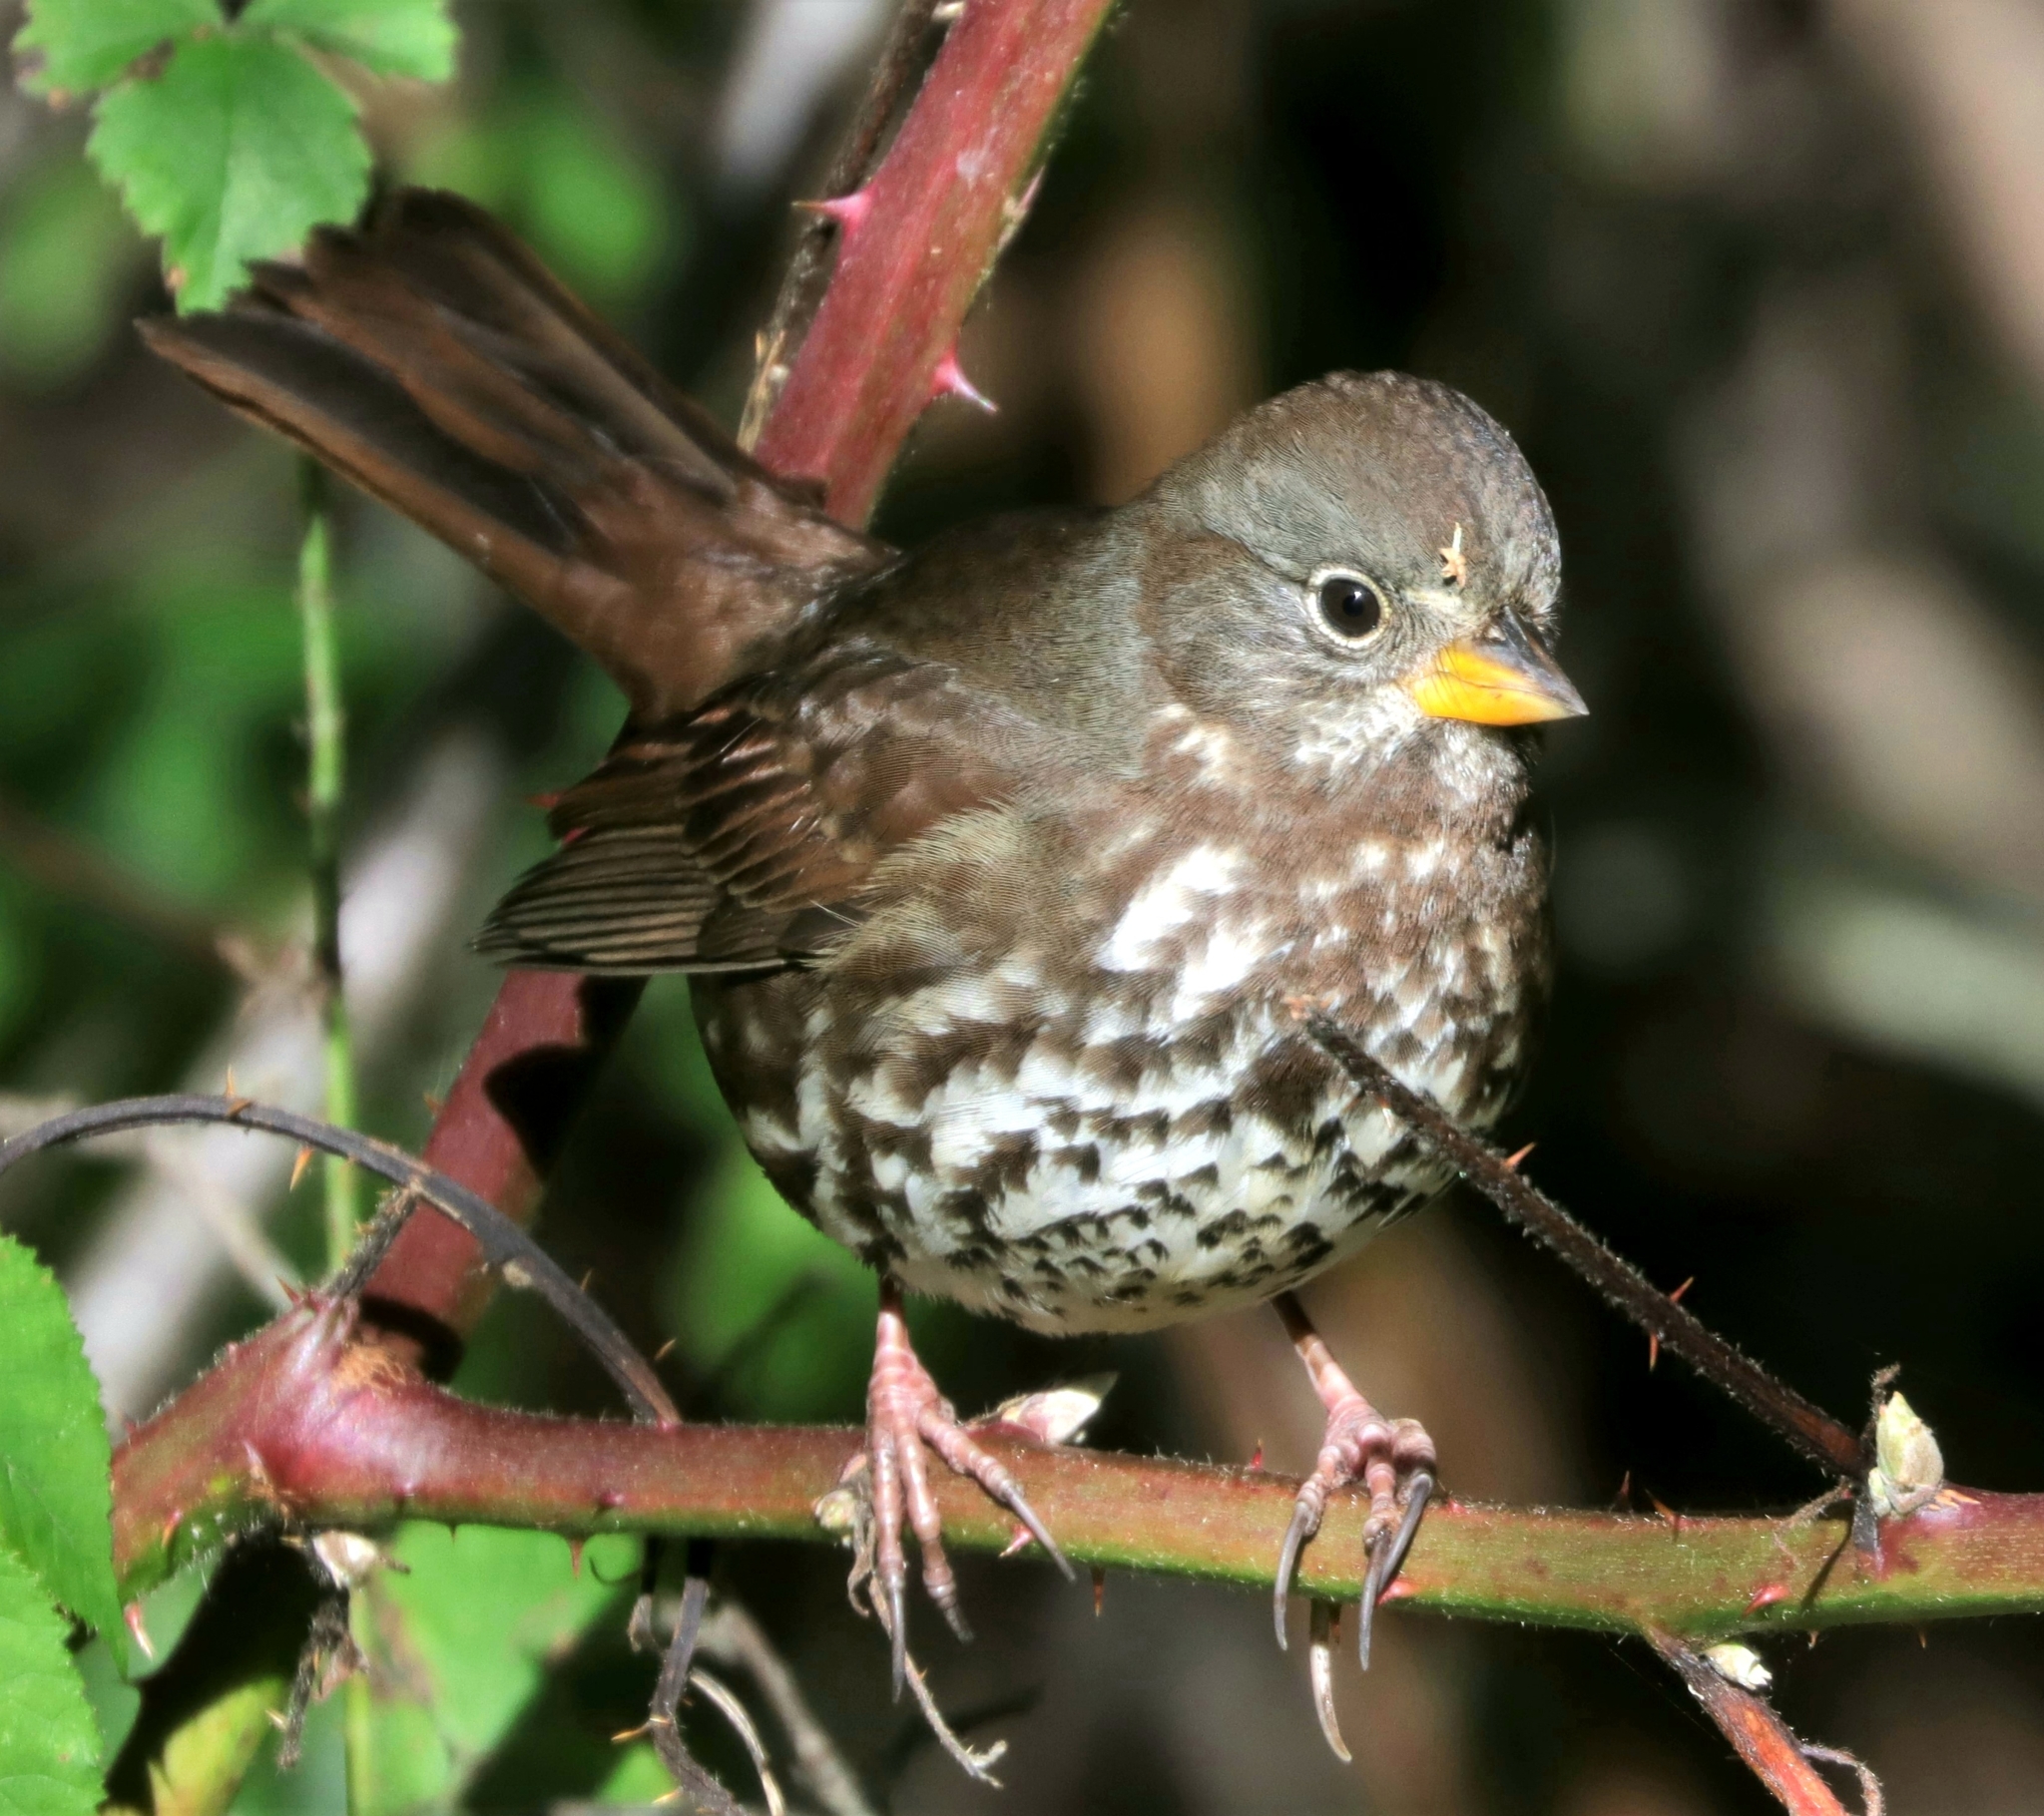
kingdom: Animalia
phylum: Chordata
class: Aves
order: Passeriformes
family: Passerellidae
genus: Passerella
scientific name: Passerella iliaca
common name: Fox sparrow
